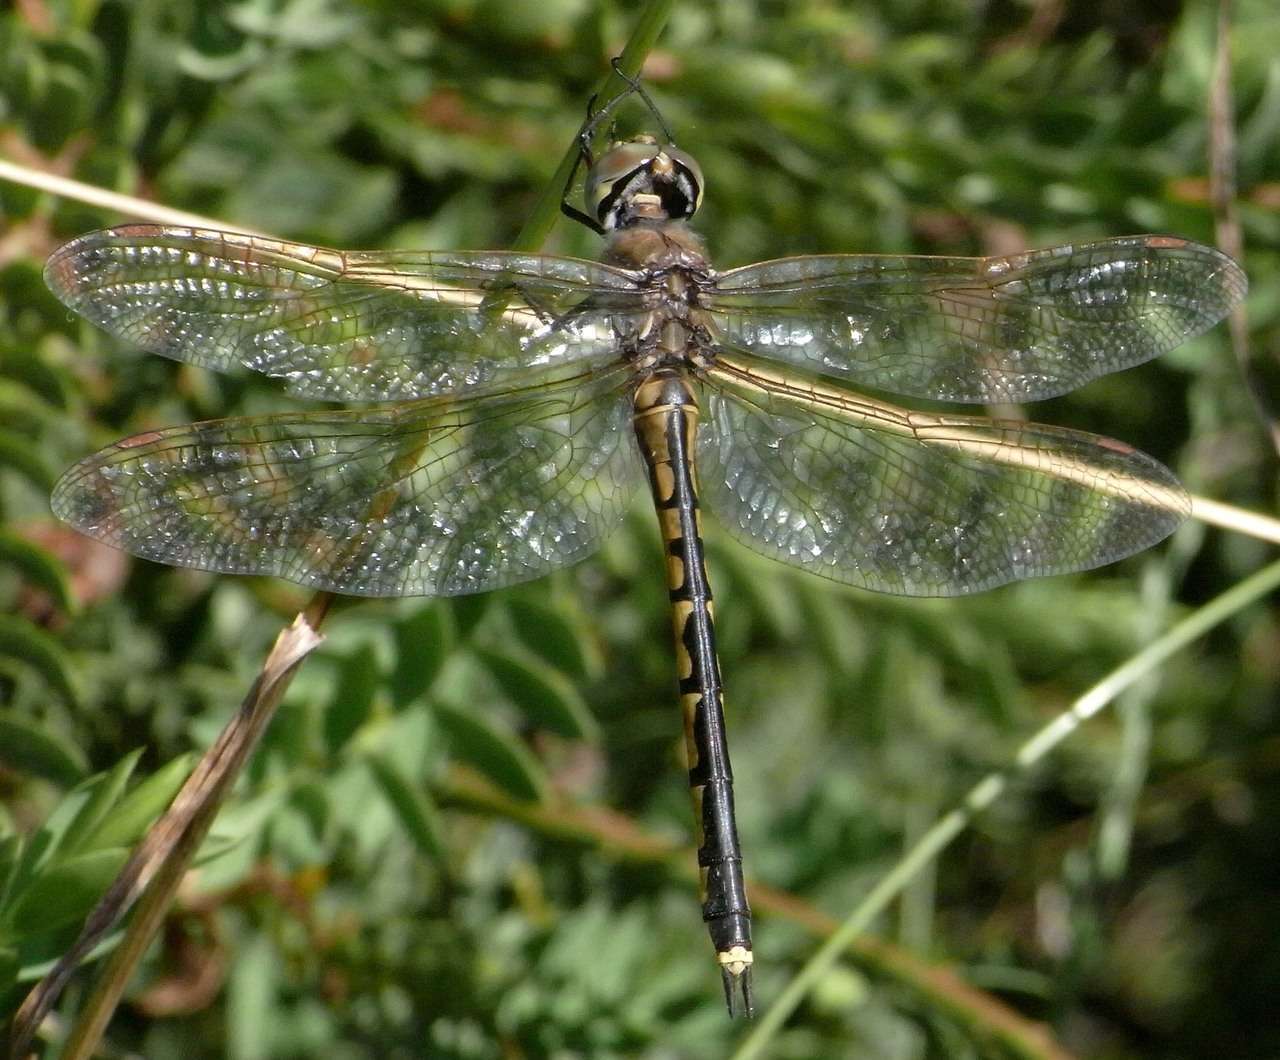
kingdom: Animalia
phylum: Arthropoda
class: Insecta
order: Odonata
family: Corduliidae
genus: Hemicordulia
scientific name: Hemicordulia tau
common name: Tau emerald
